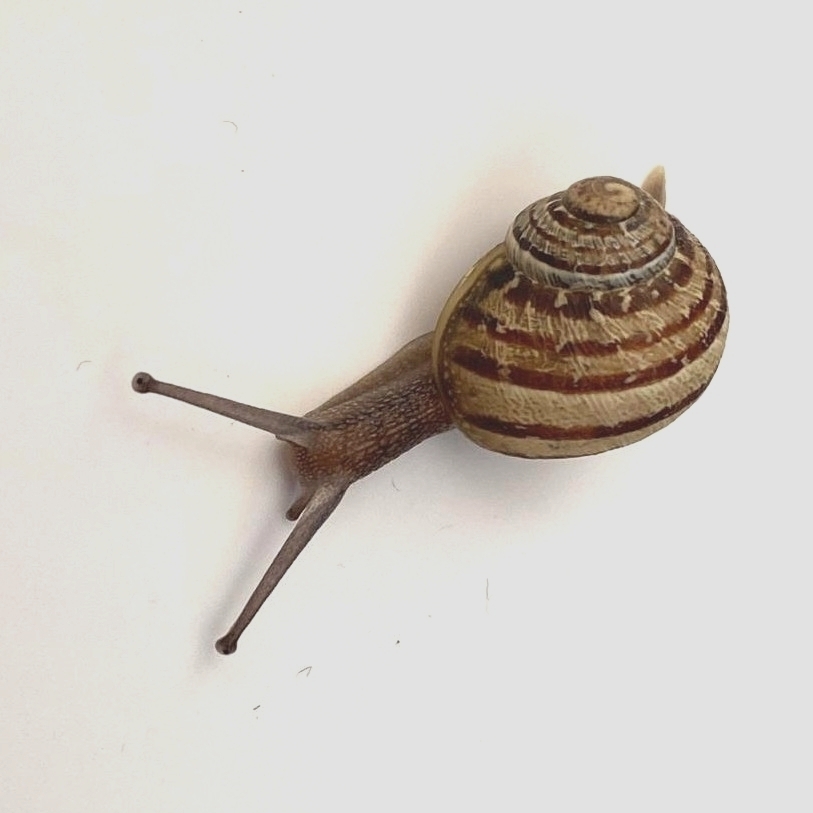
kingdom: Animalia
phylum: Mollusca
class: Gastropoda
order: Stylommatophora
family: Helicidae
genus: Cornu
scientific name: Cornu aspersum
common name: Brown garden snail
